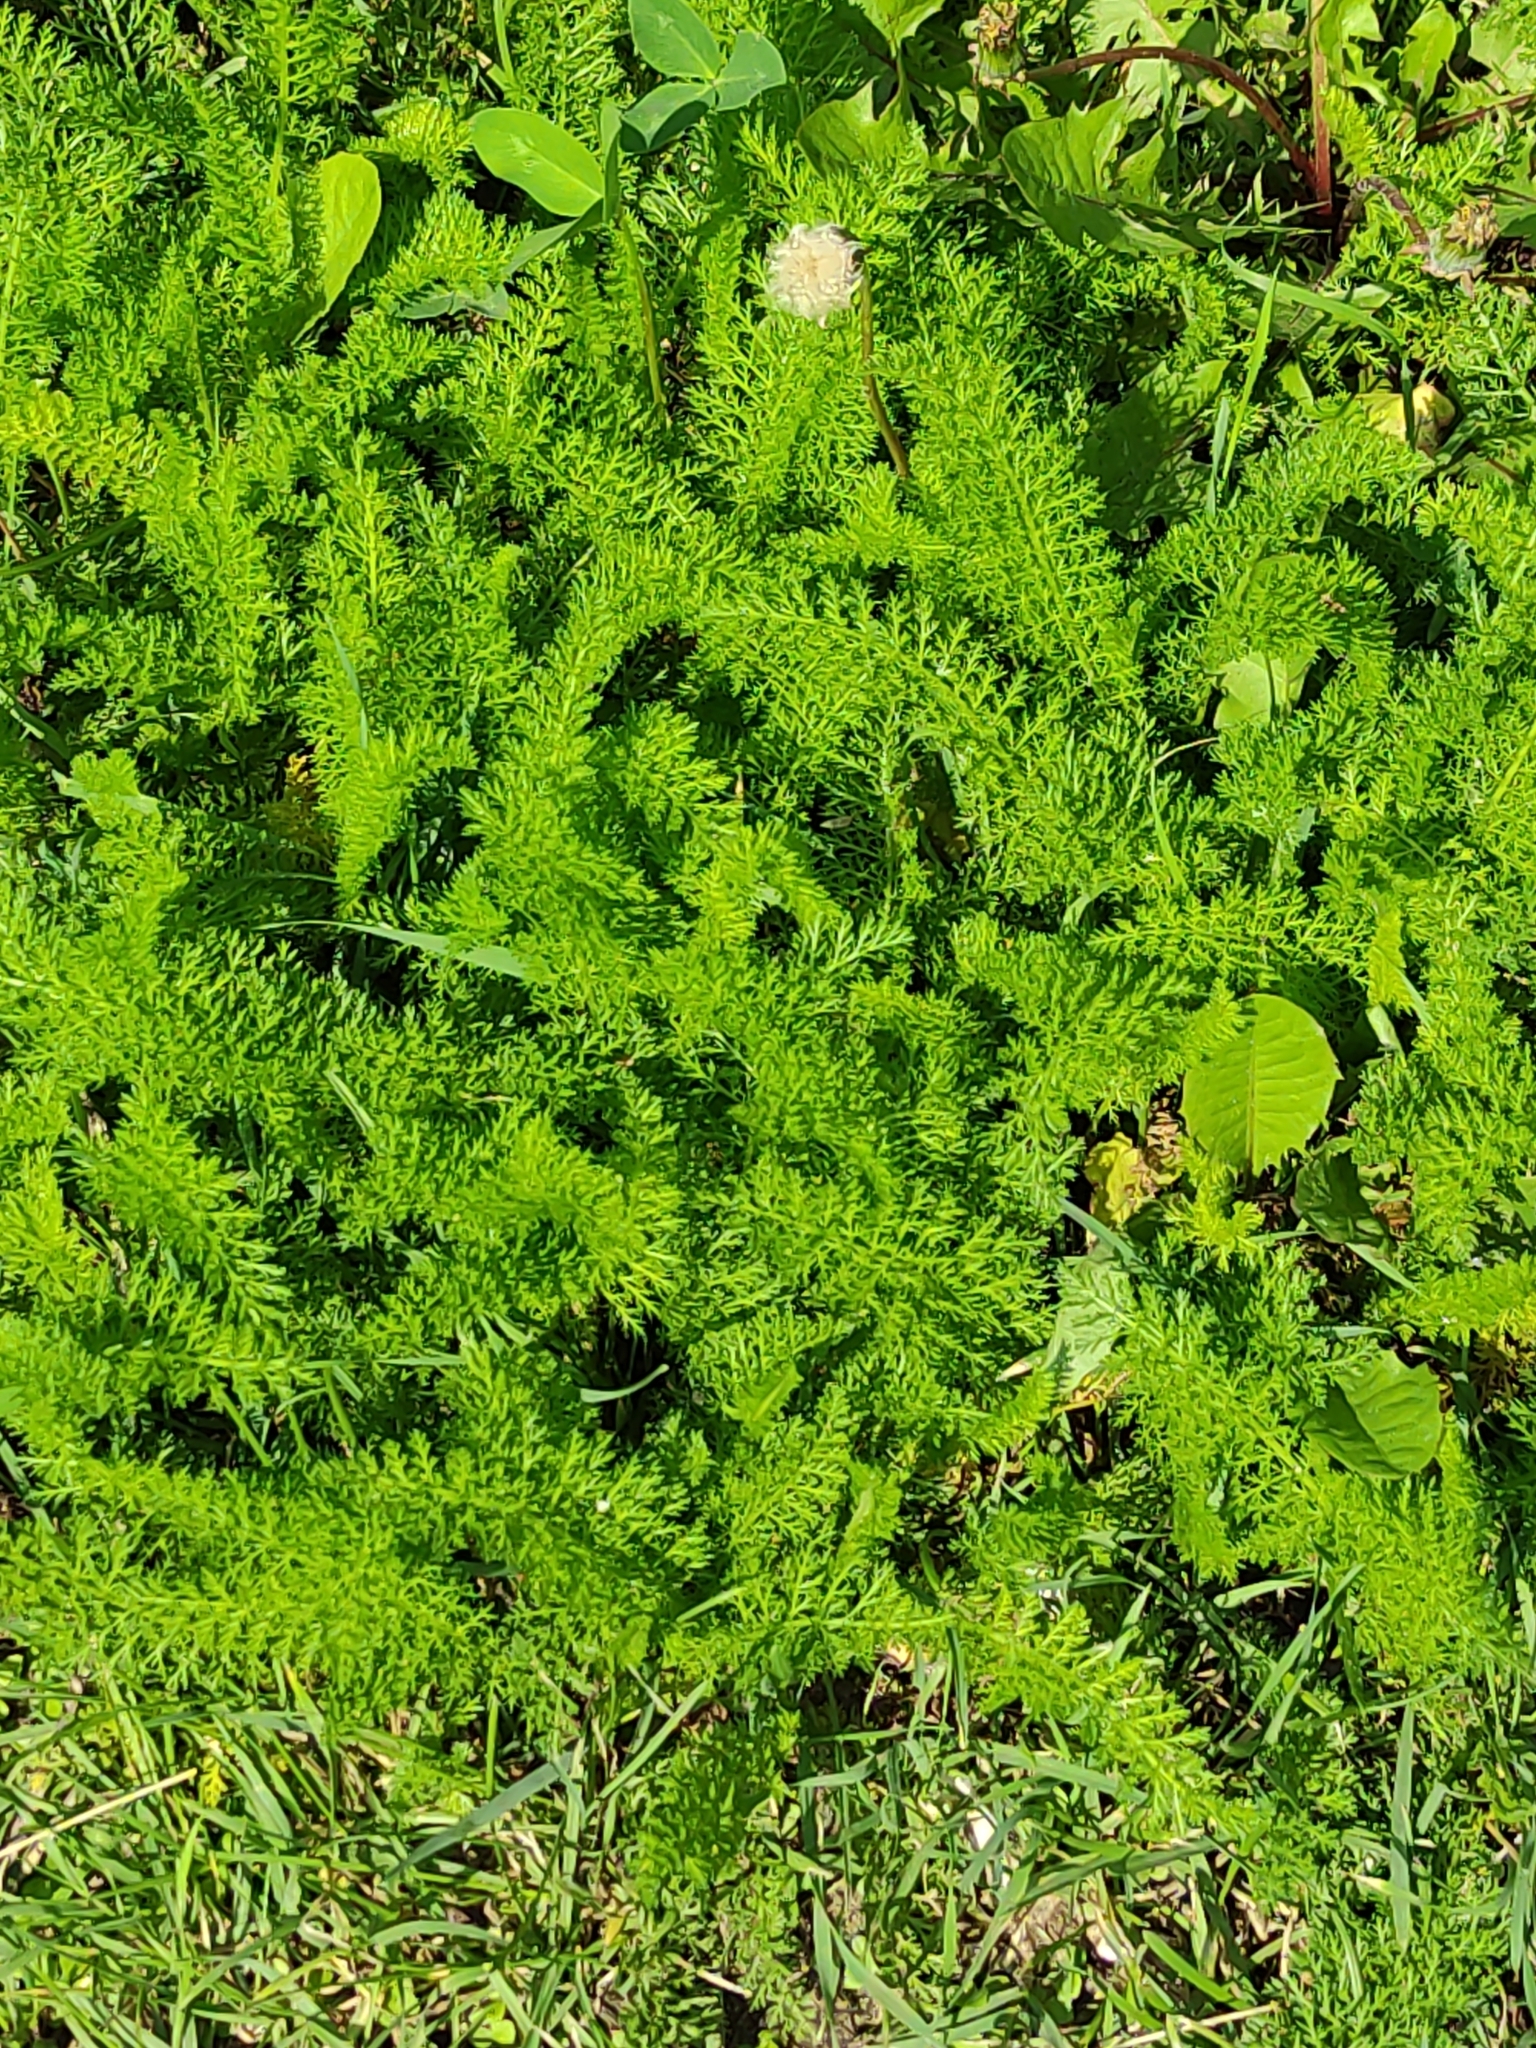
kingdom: Plantae
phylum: Tracheophyta
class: Magnoliopsida
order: Asterales
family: Asteraceae
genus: Achillea
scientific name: Achillea millefolium
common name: Yarrow
